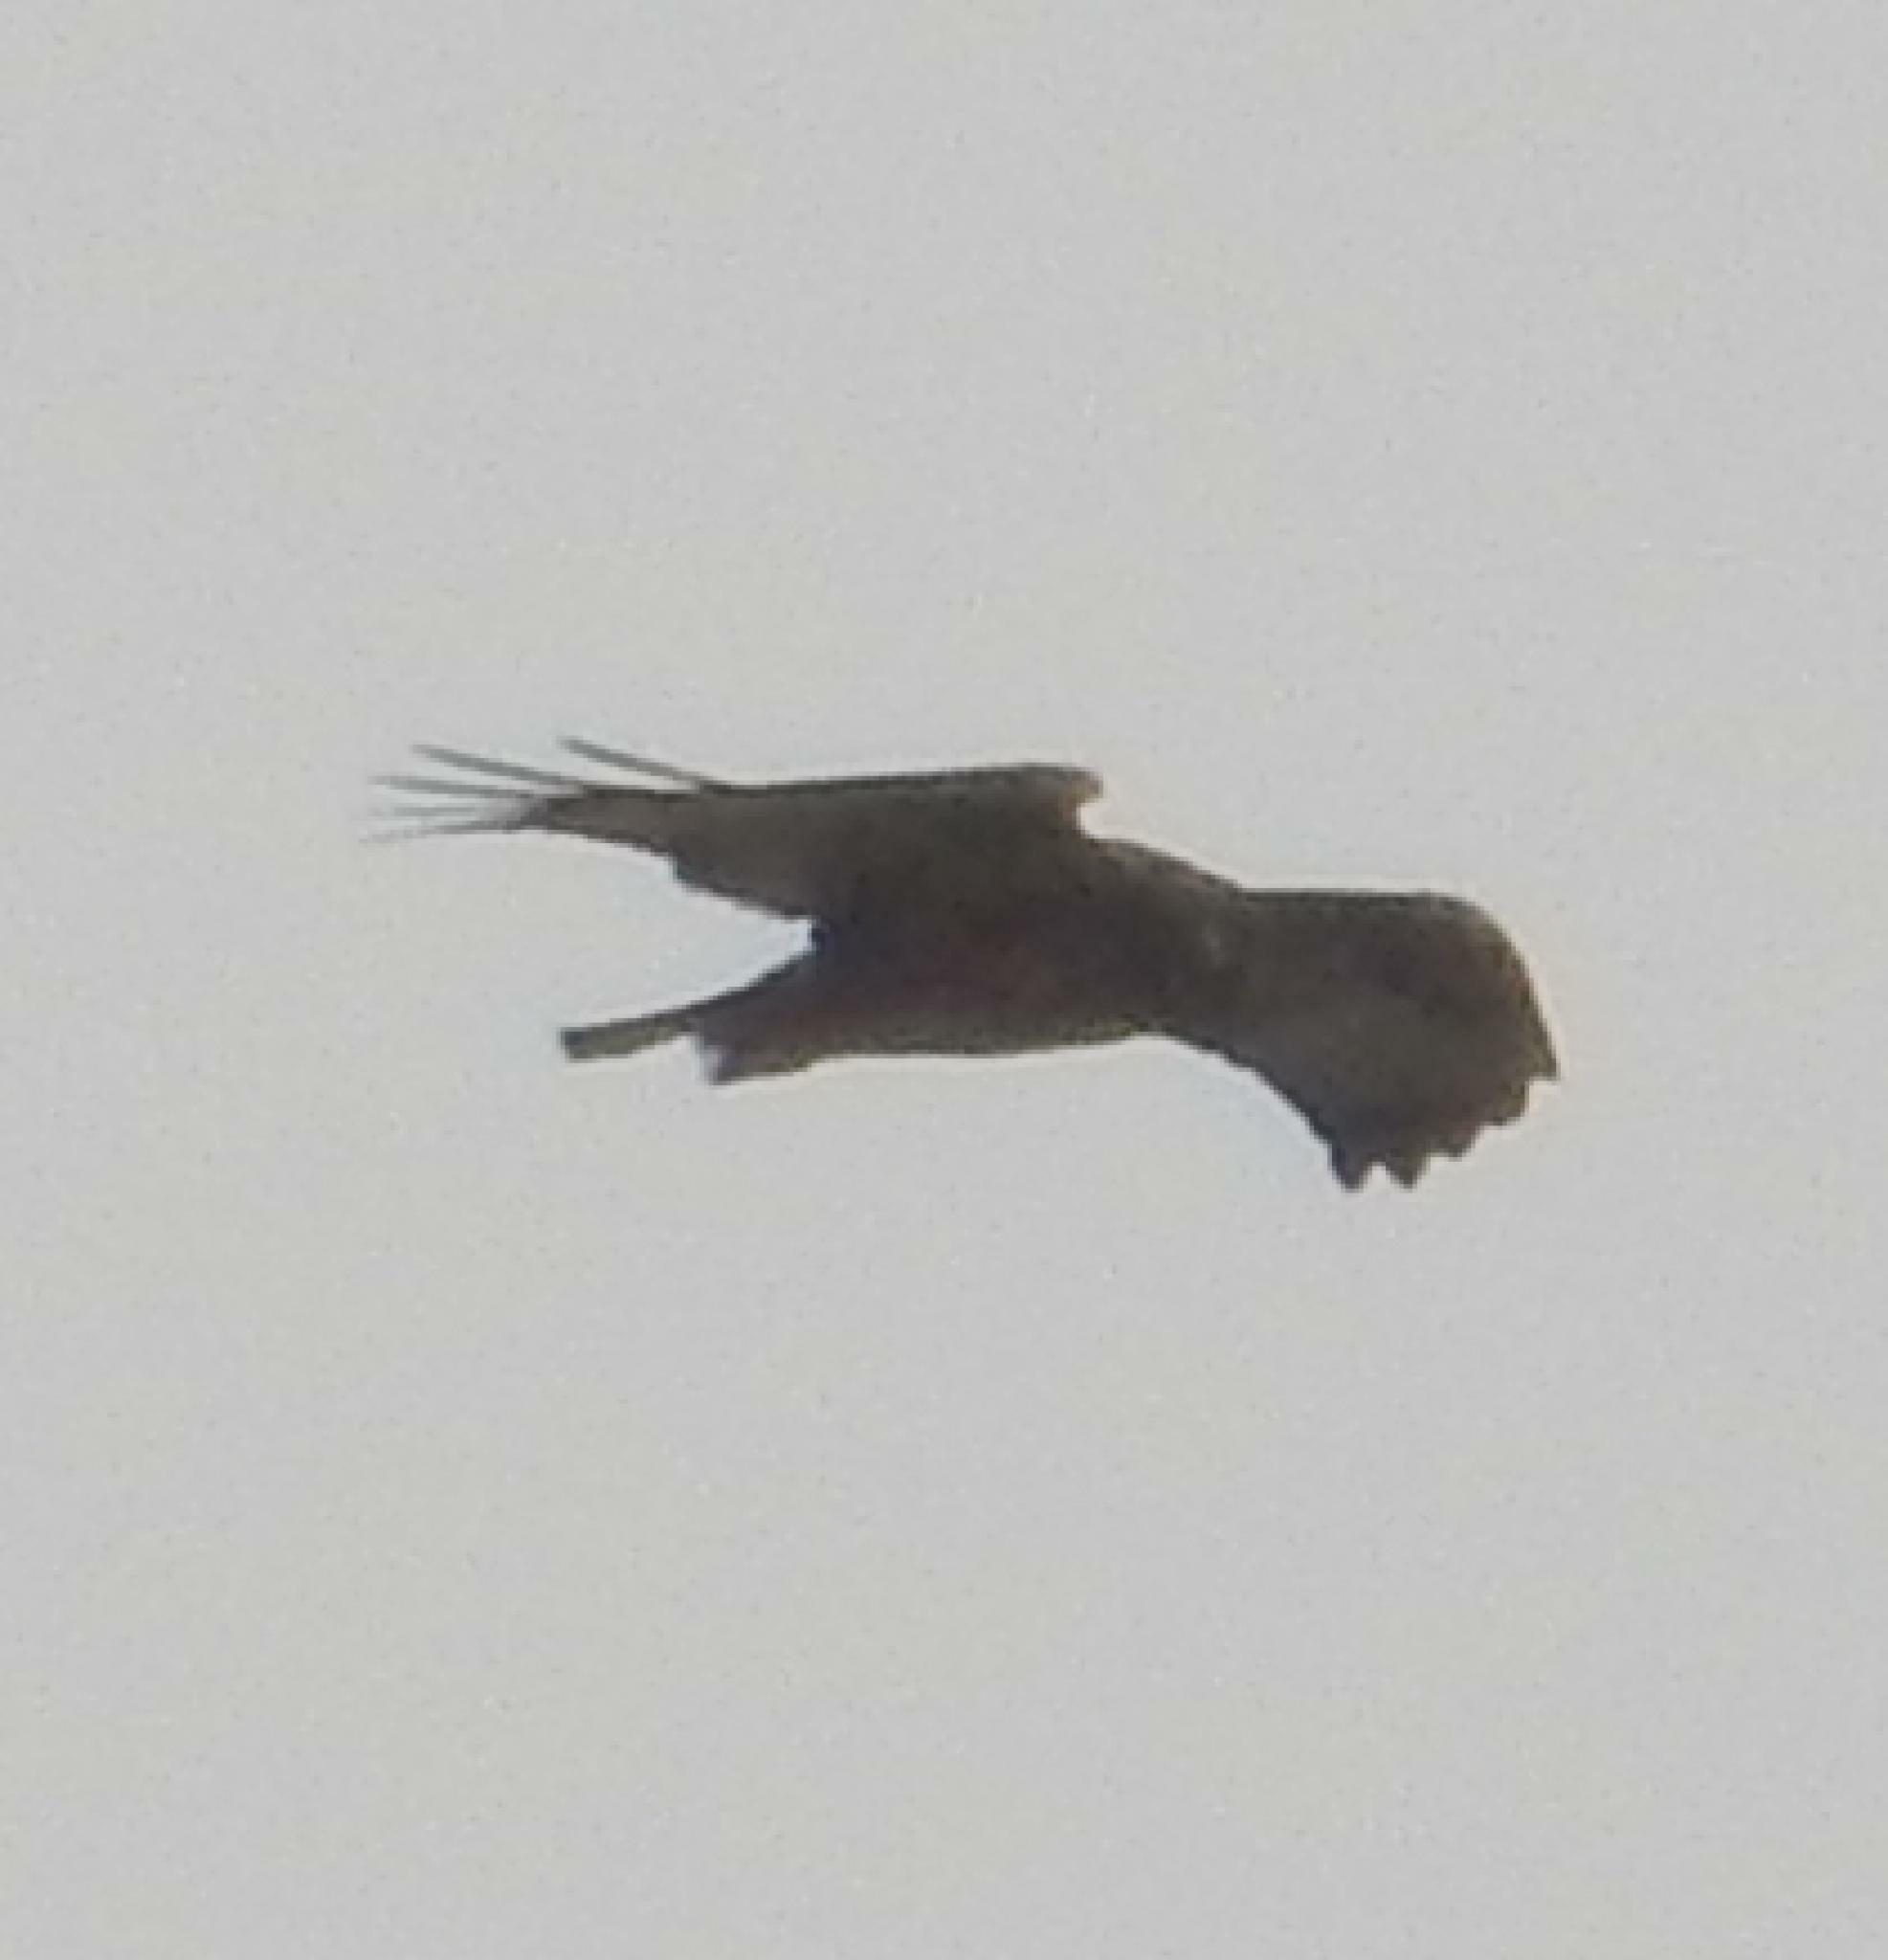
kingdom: Animalia
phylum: Chordata
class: Aves
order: Accipitriformes
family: Accipitridae
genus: Buteo
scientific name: Buteo rufofuscus
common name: Jackal buzzard
